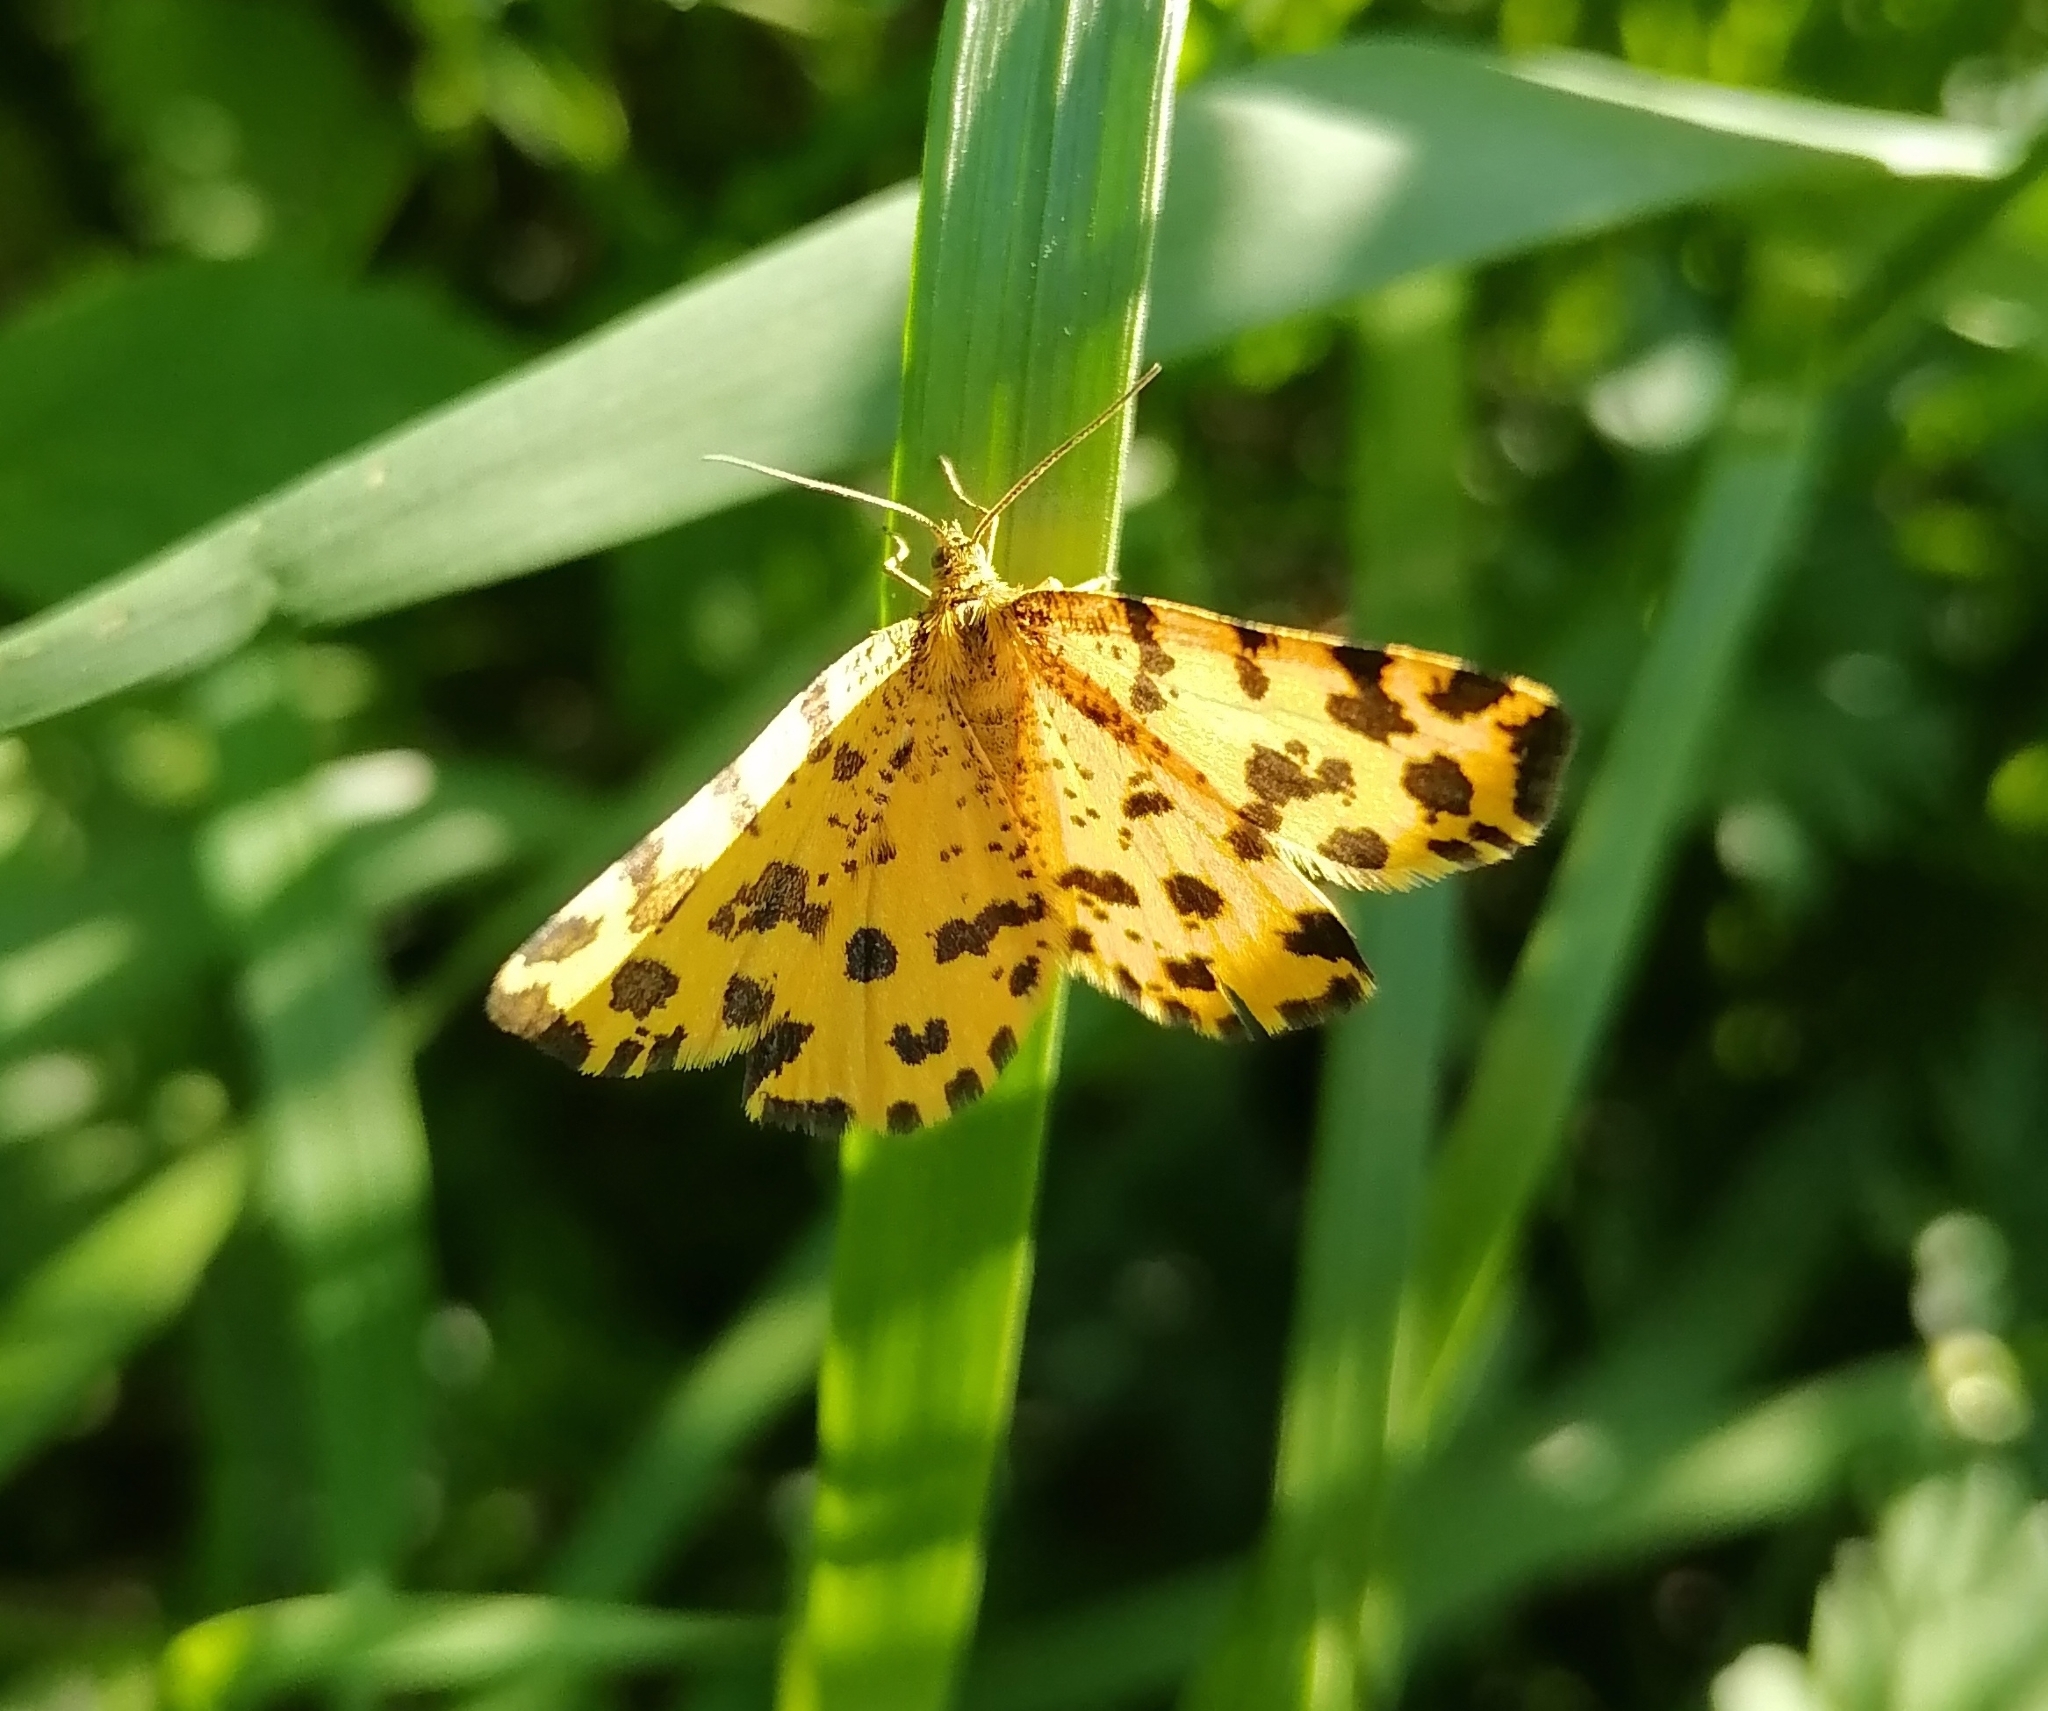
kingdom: Animalia
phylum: Arthropoda
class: Insecta
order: Lepidoptera
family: Geometridae
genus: Pseudopanthera
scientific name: Pseudopanthera macularia
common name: Speckled yellow
